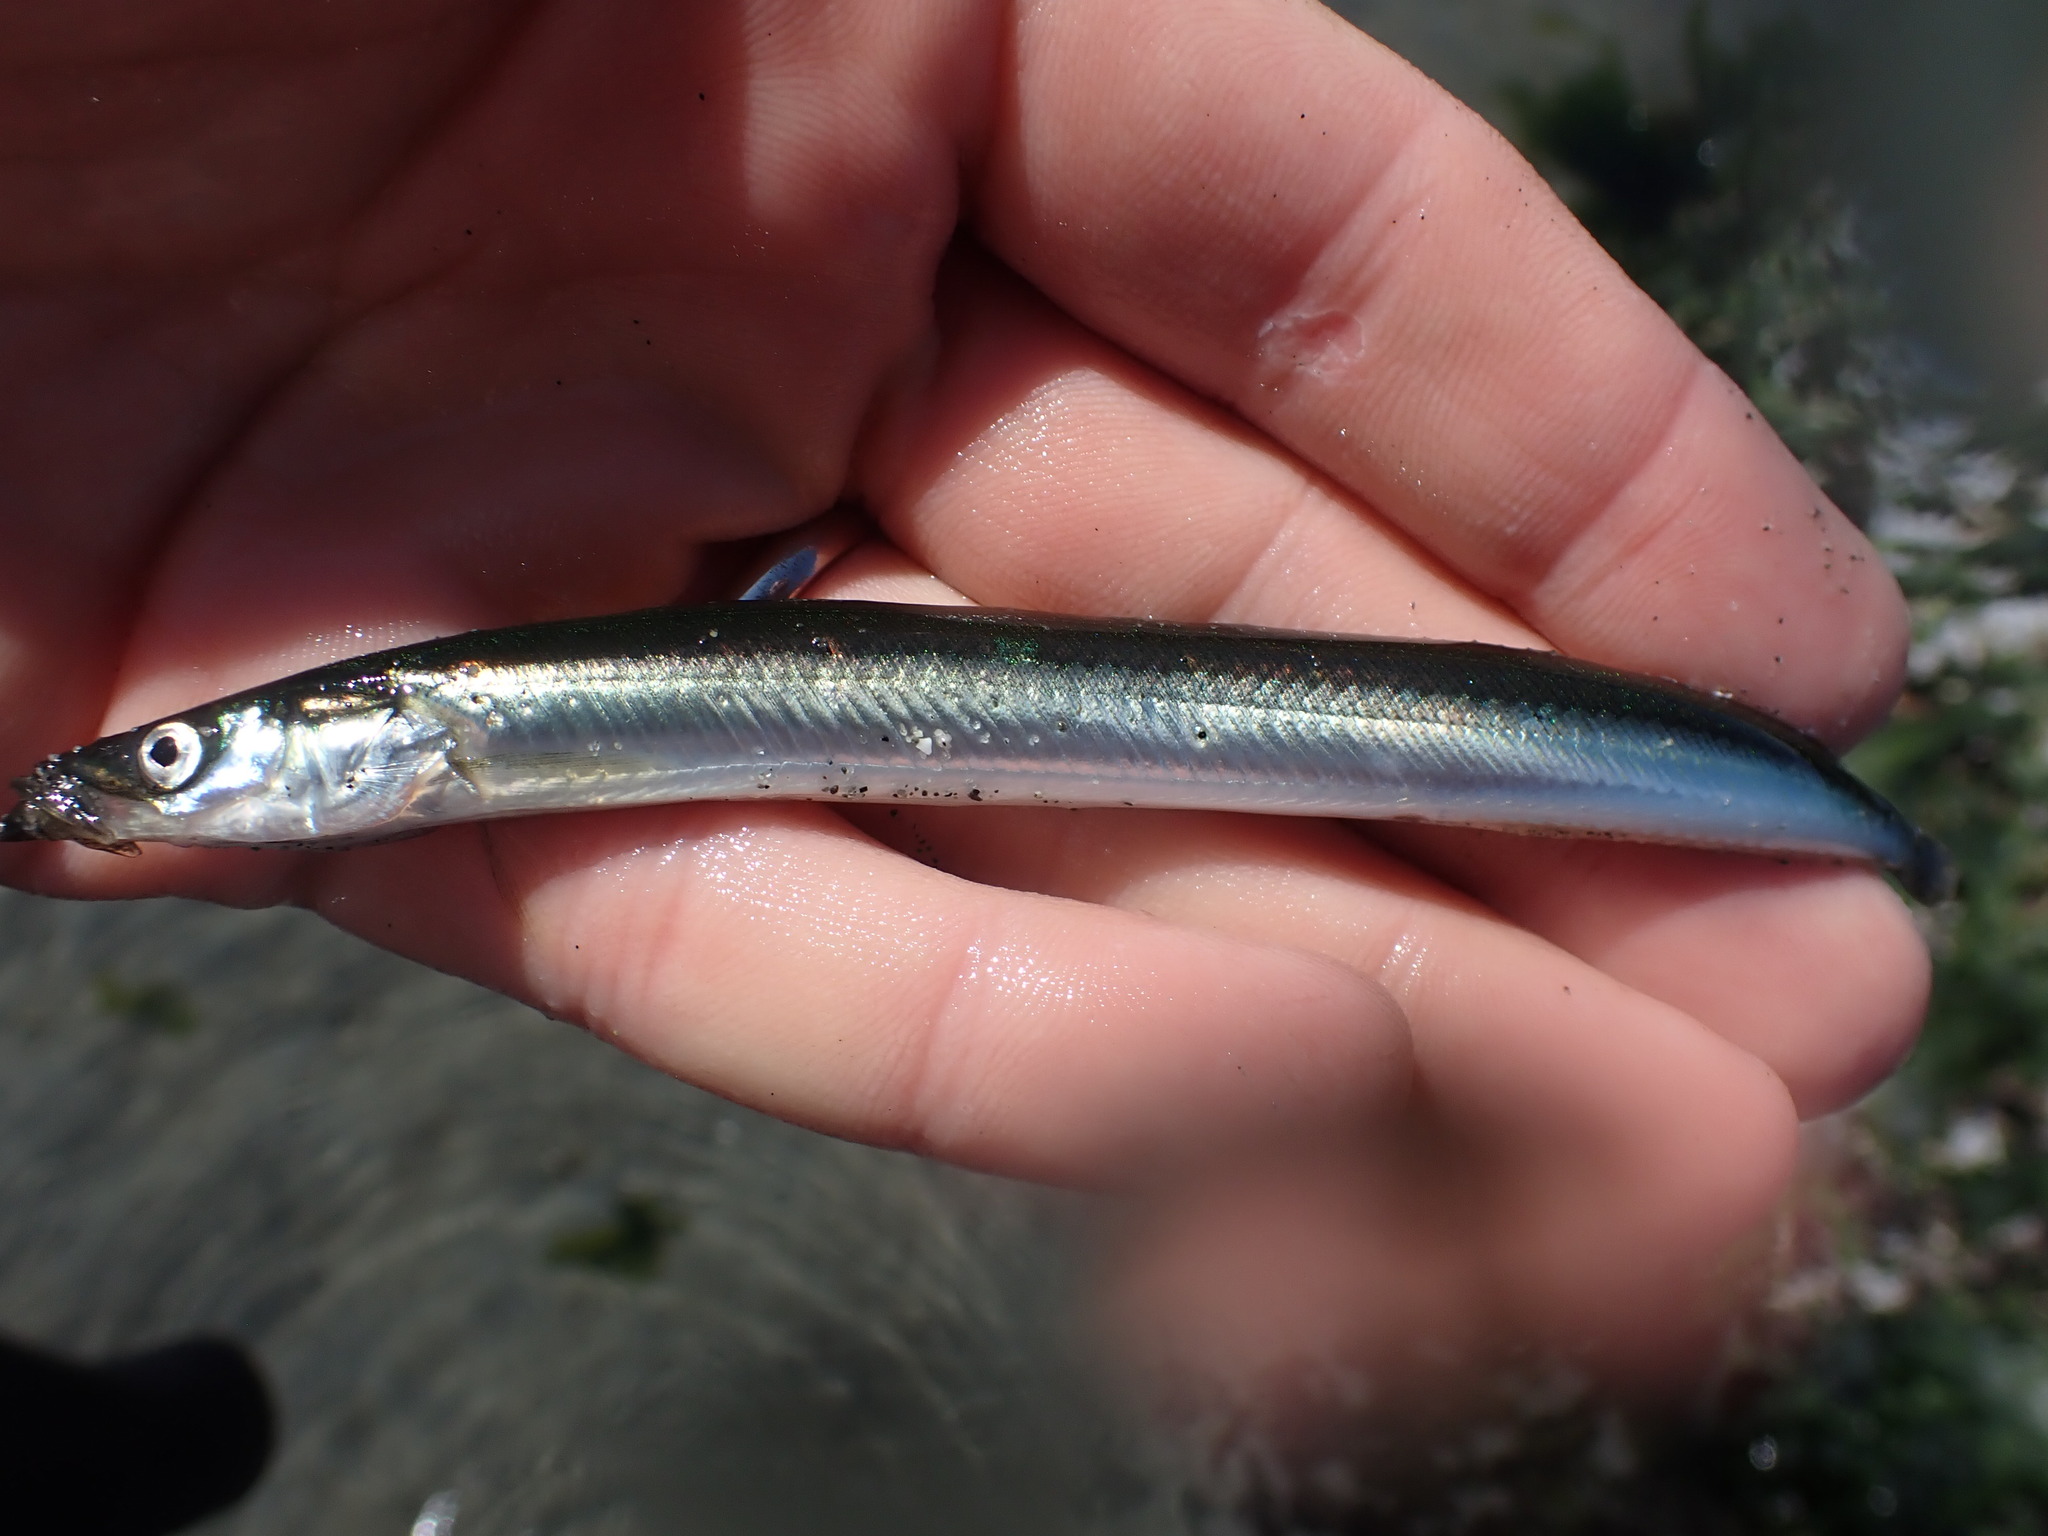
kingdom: Animalia
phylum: Chordata
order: Perciformes
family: Ammodytidae
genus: Ammodytes
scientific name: Ammodytes personatus
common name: Japanese sand lance
